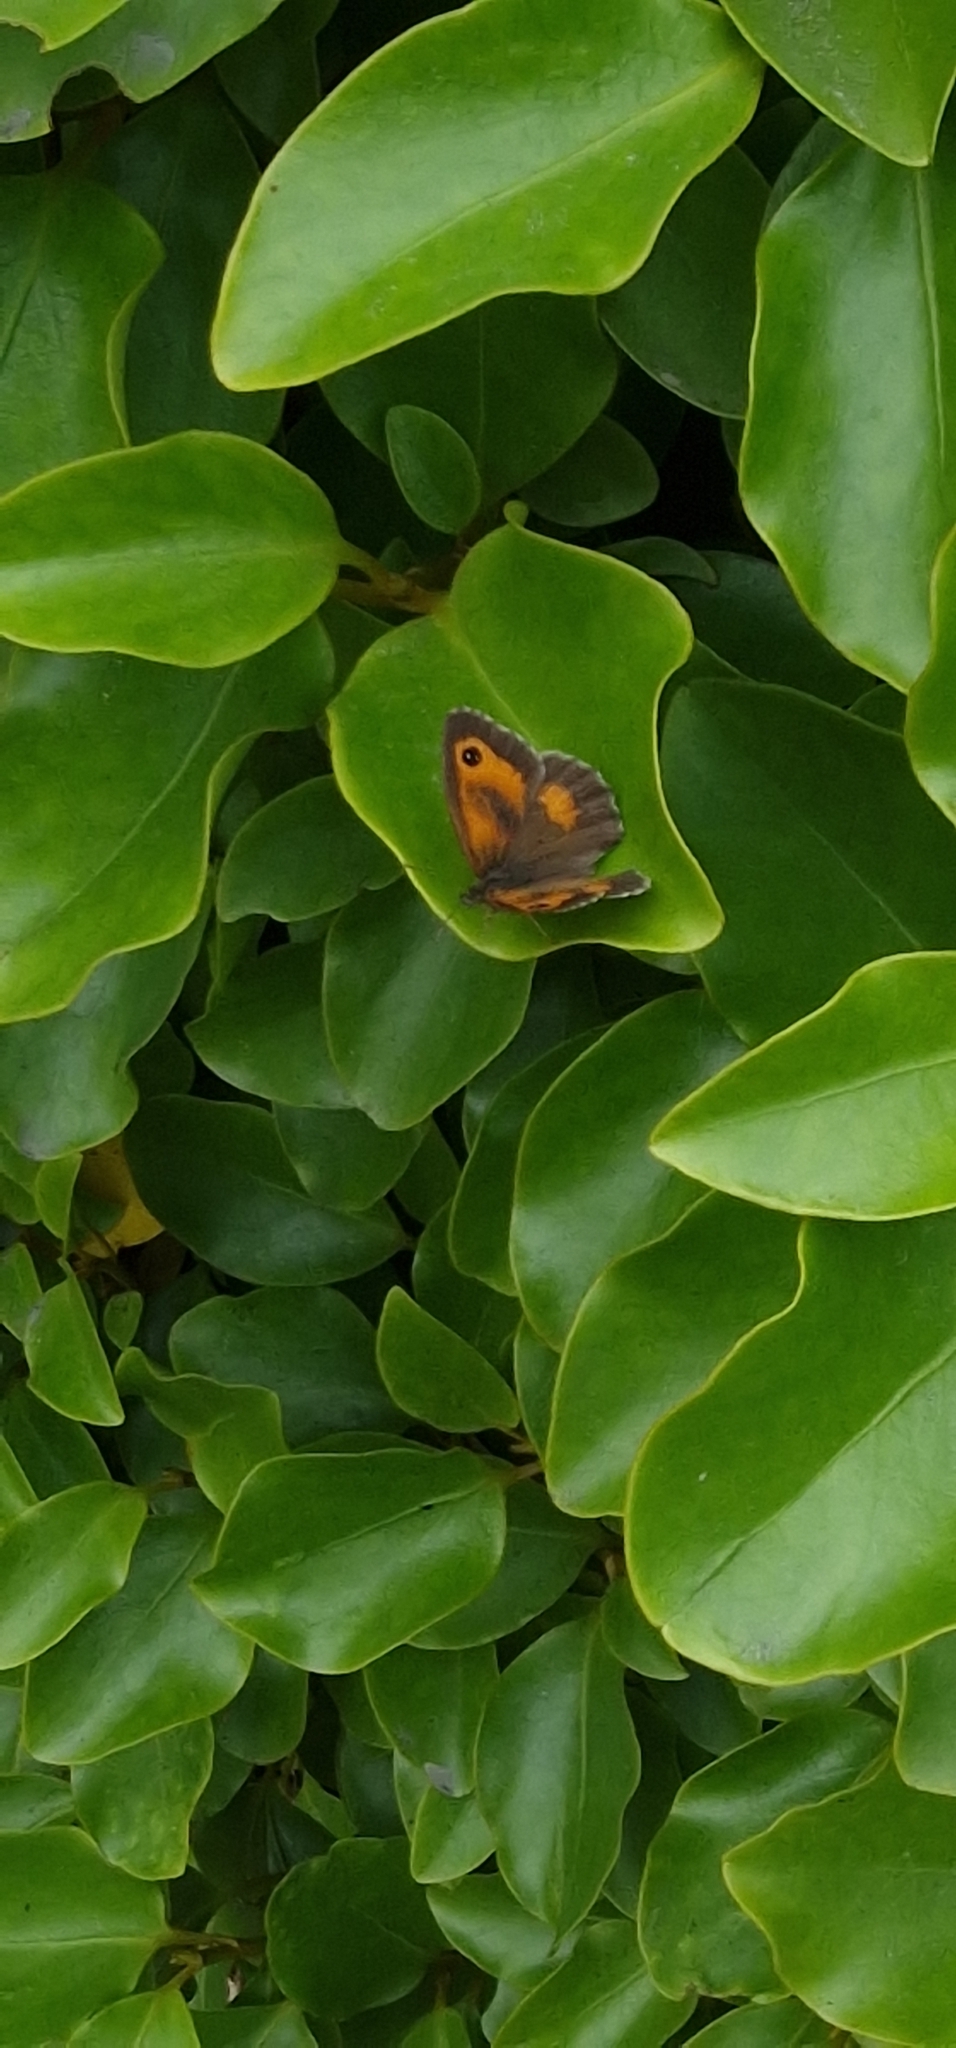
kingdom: Animalia
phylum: Arthropoda
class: Insecta
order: Lepidoptera
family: Nymphalidae
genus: Pyronia
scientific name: Pyronia tithonus
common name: Gatekeeper
